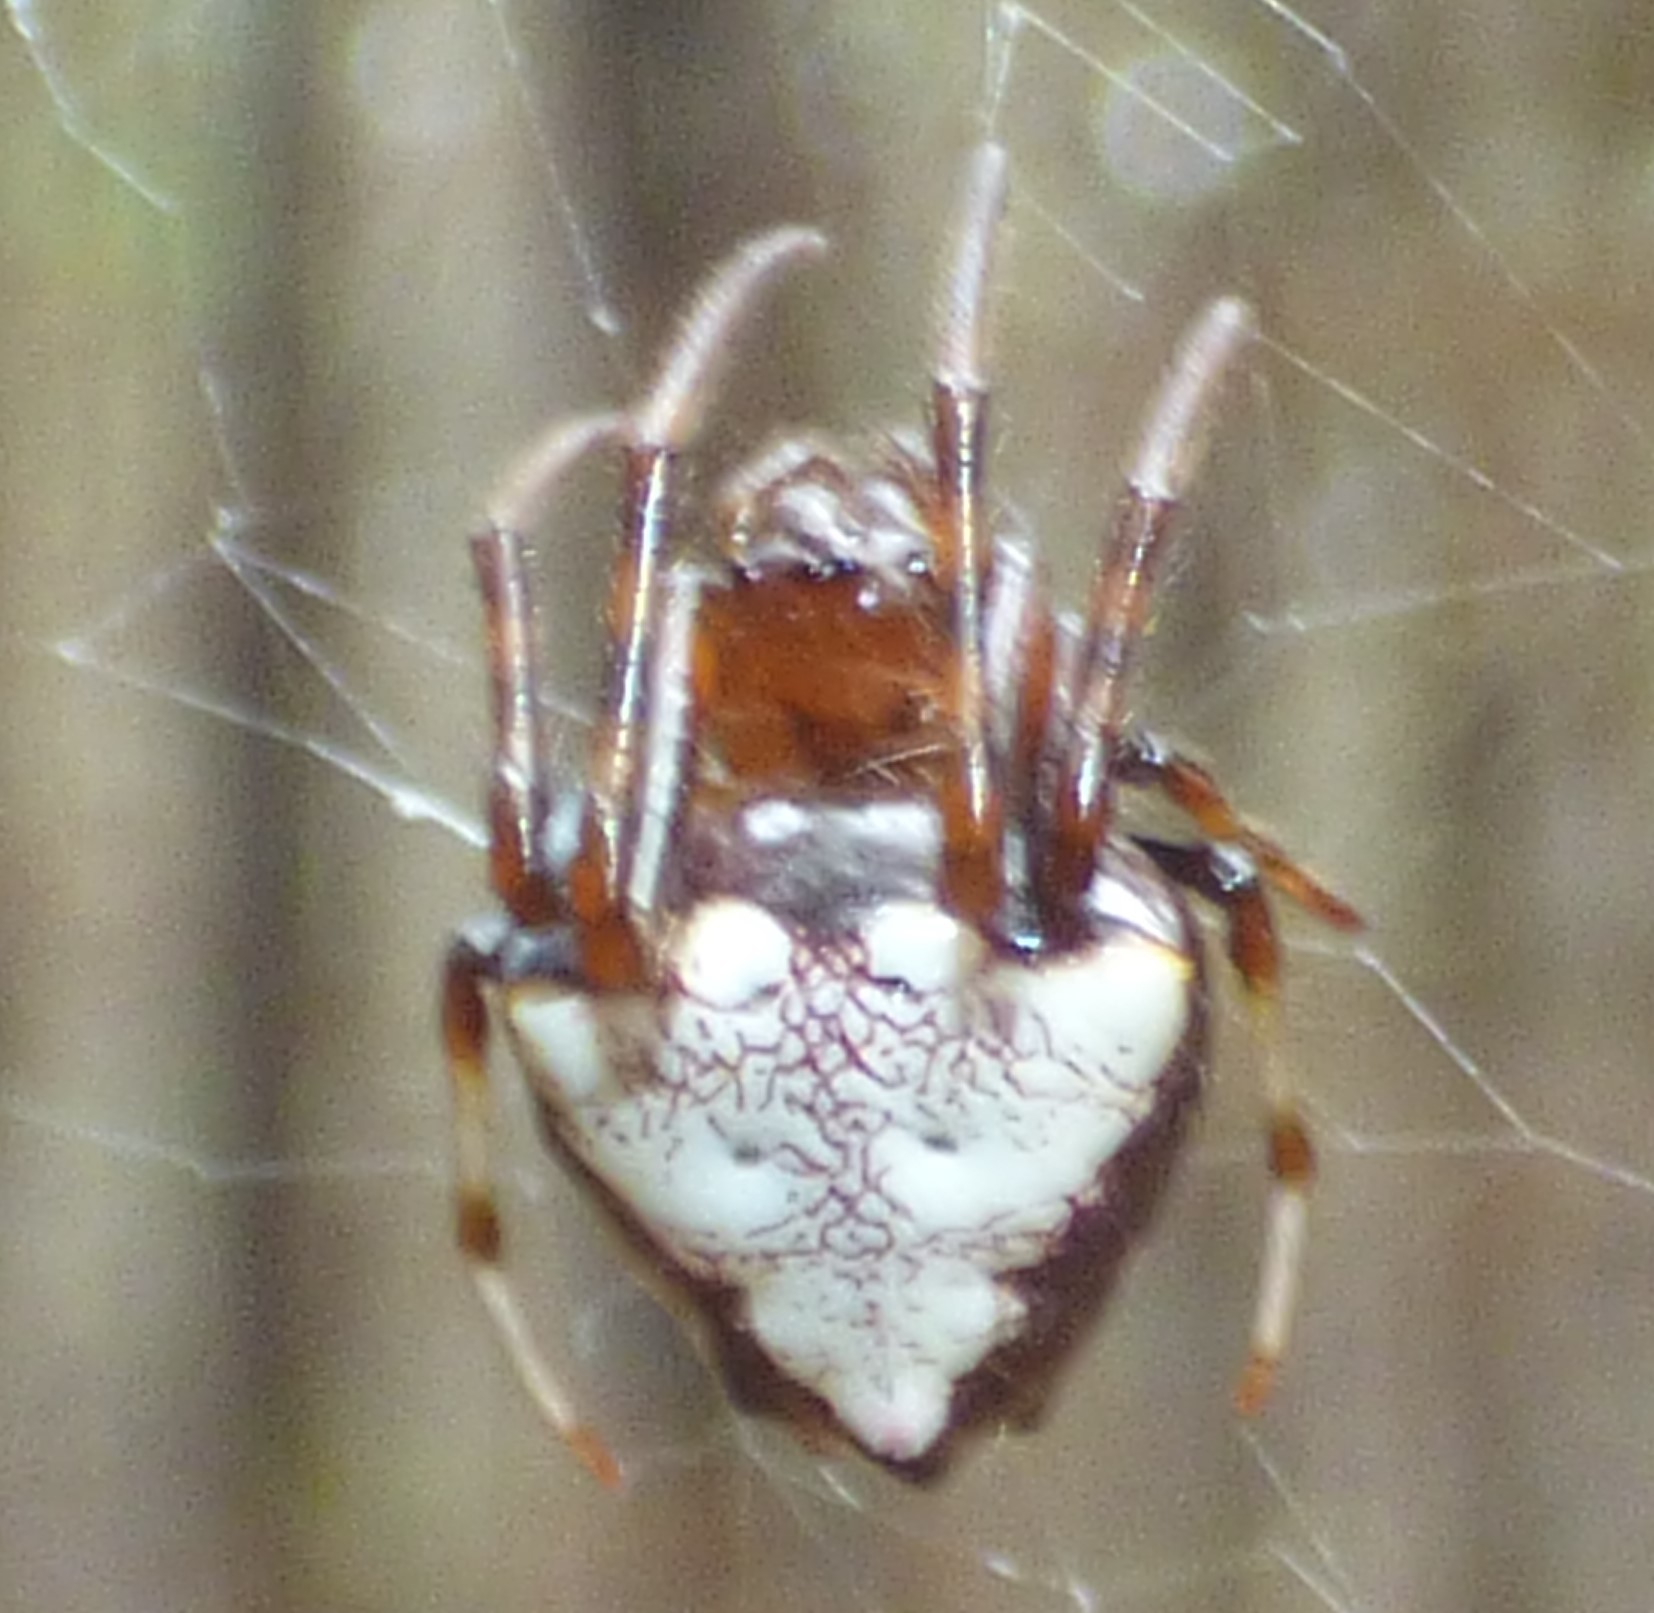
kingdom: Animalia
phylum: Arthropoda
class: Arachnida
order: Araneae
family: Araneidae
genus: Verrucosa
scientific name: Verrucosa arenata
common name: Orb weavers
